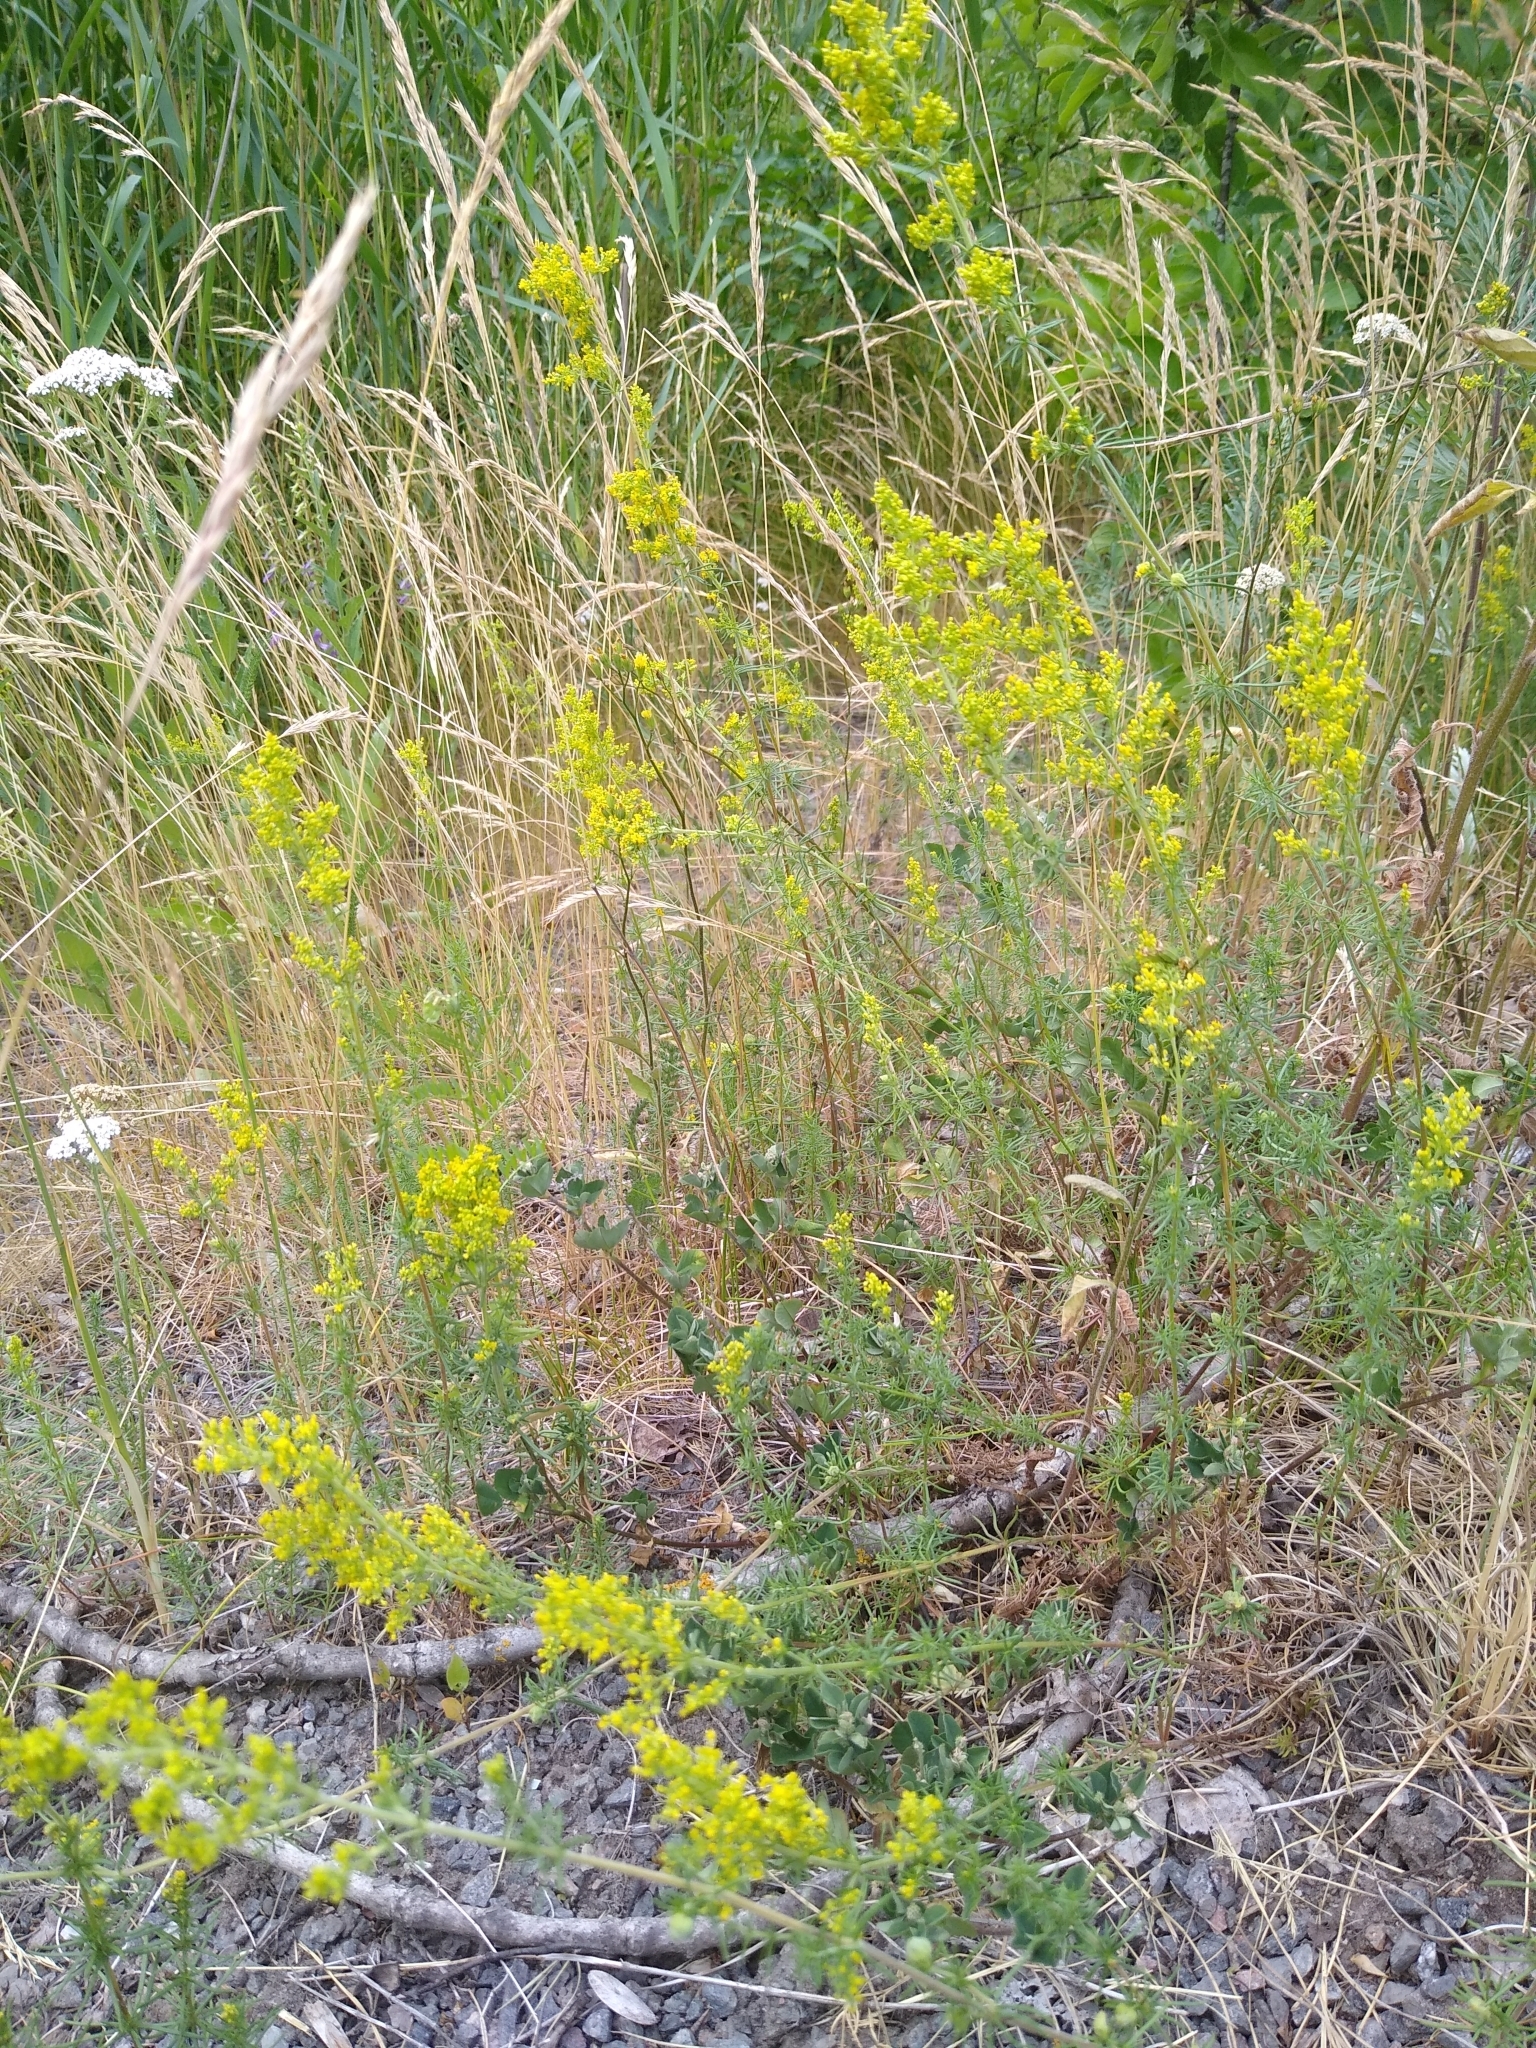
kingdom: Plantae
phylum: Tracheophyta
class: Magnoliopsida
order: Gentianales
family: Rubiaceae
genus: Galium
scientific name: Galium verum
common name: Lady's bedstraw
